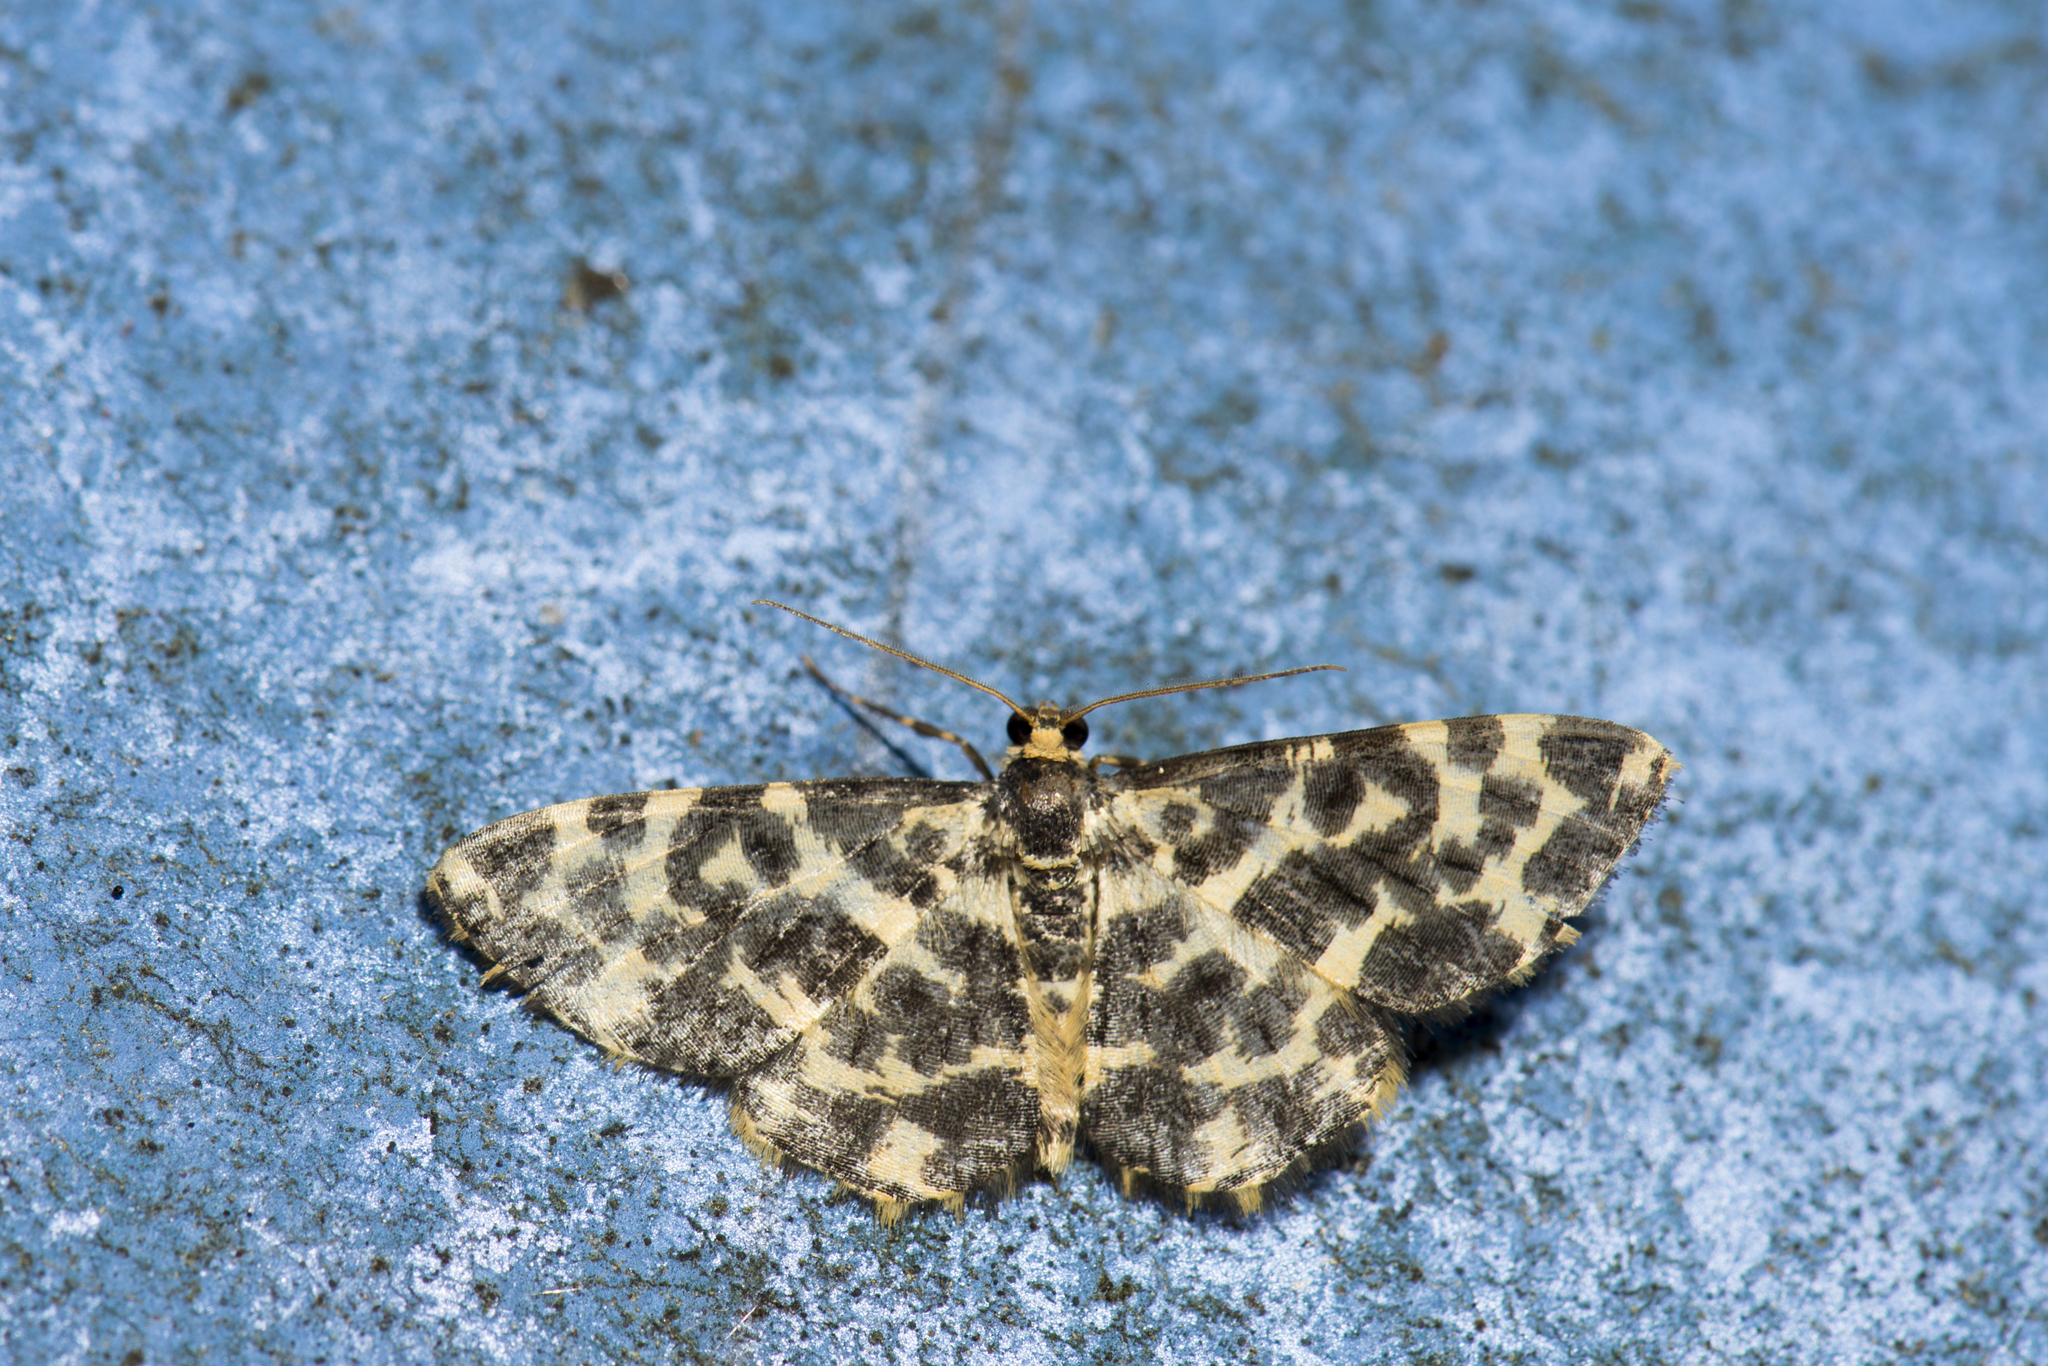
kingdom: Animalia
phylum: Arthropoda
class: Insecta
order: Lepidoptera
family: Geometridae
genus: Monocerotesa
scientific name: Monocerotesa abraxides
